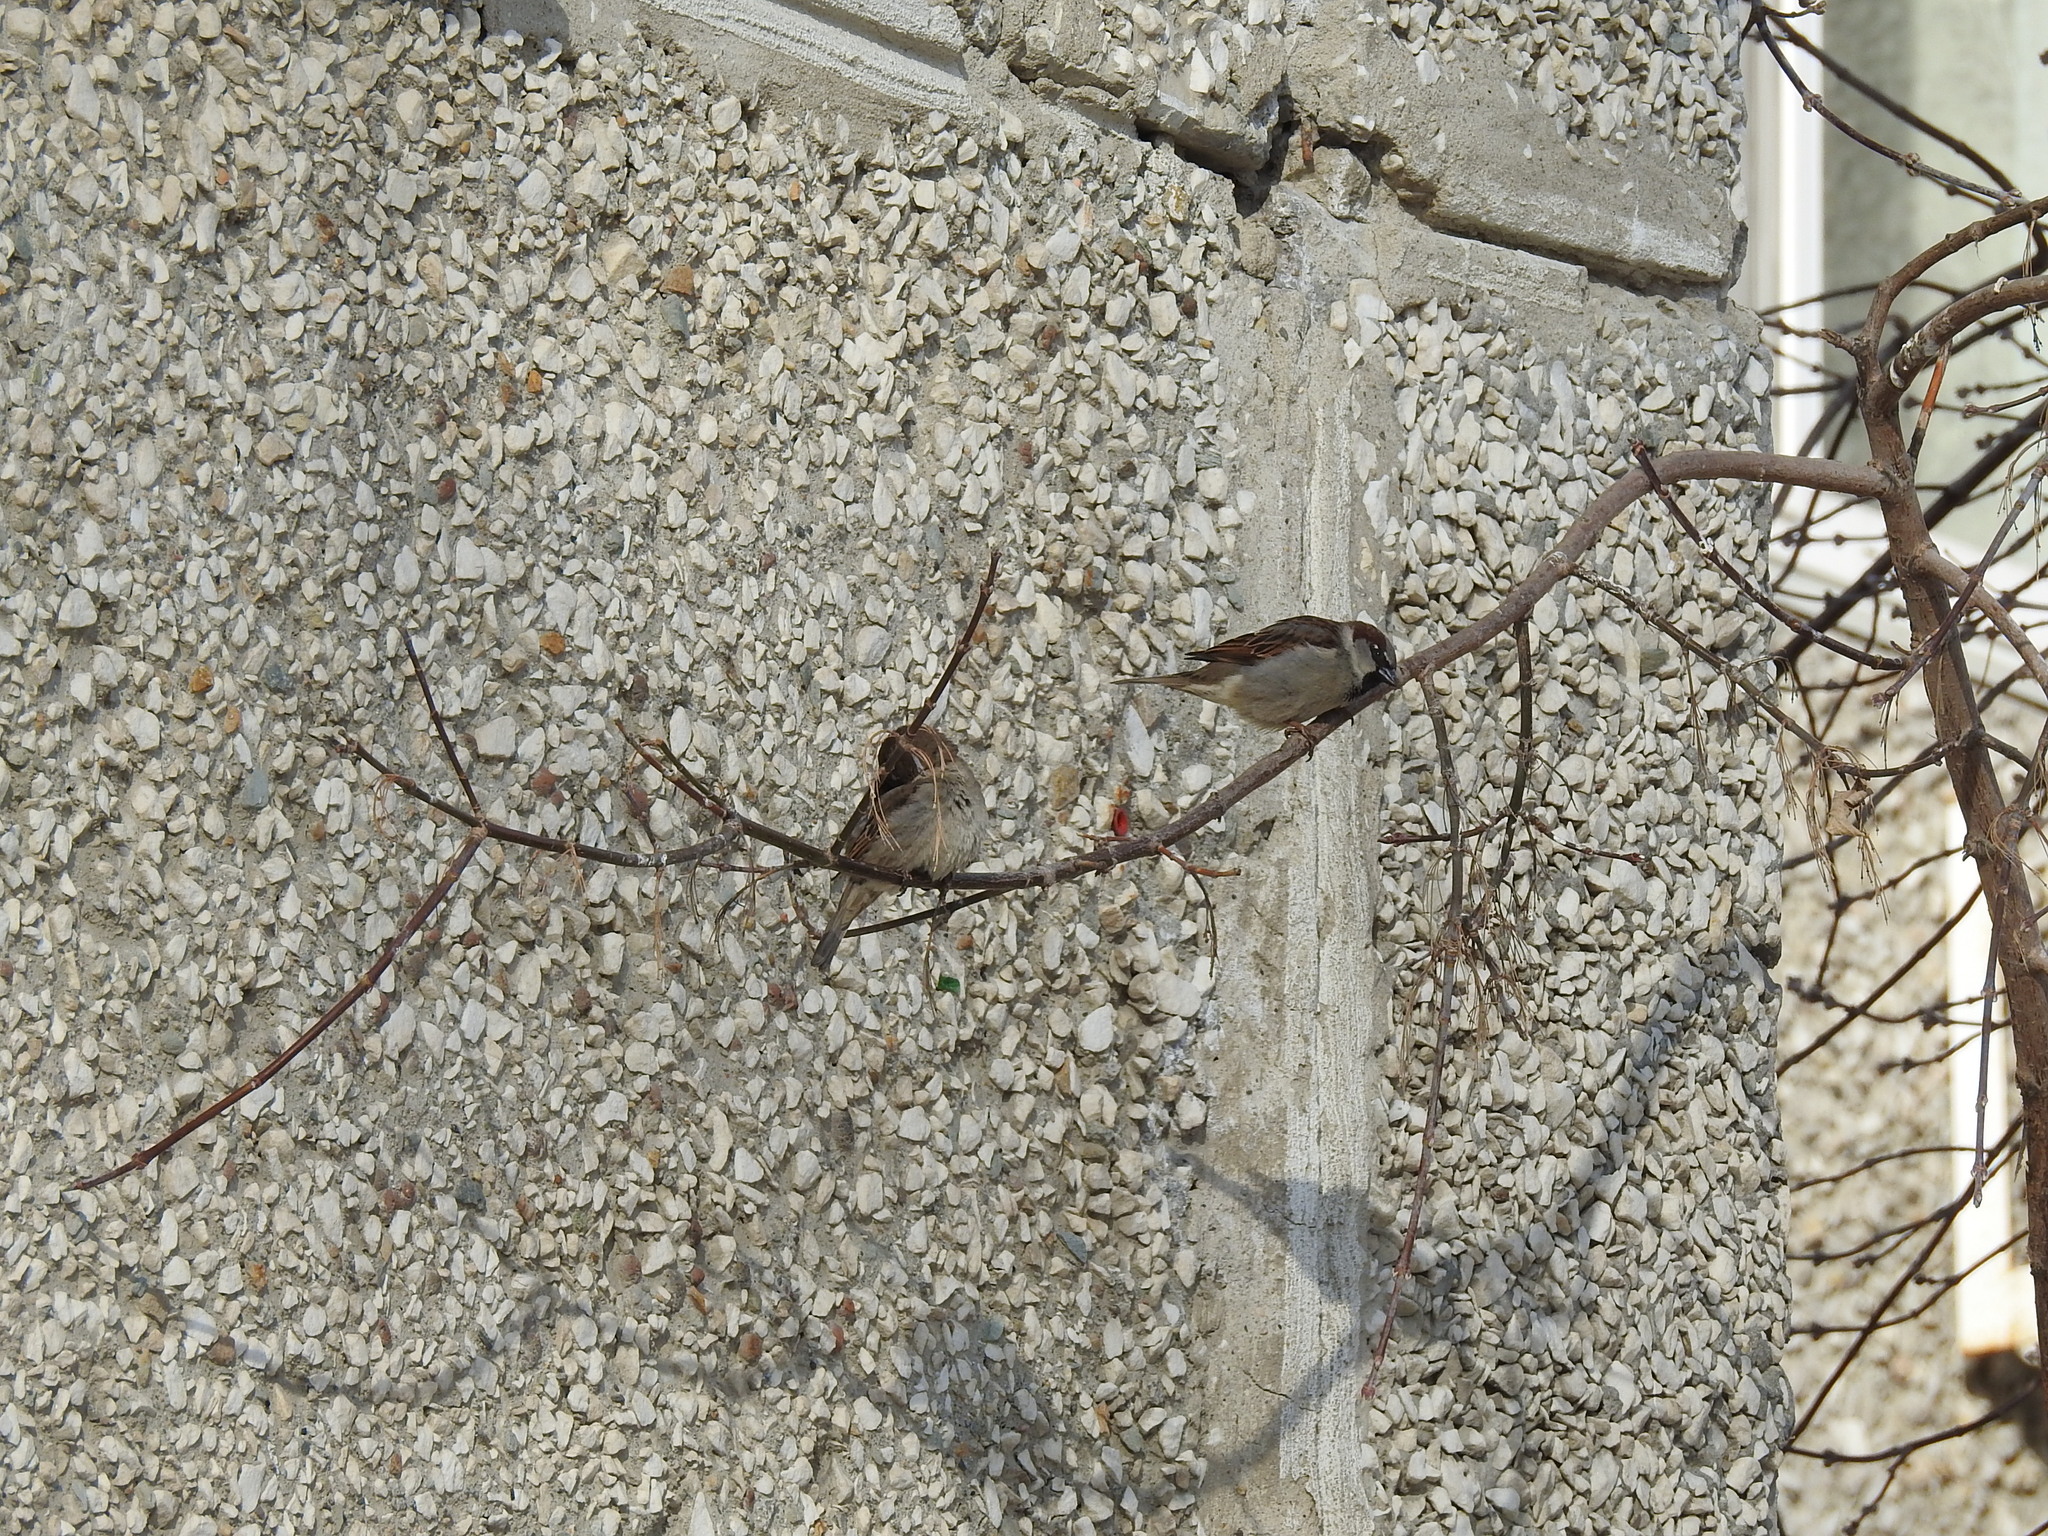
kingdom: Animalia
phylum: Chordata
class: Aves
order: Passeriformes
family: Passeridae
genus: Passer
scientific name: Passer domesticus
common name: House sparrow
